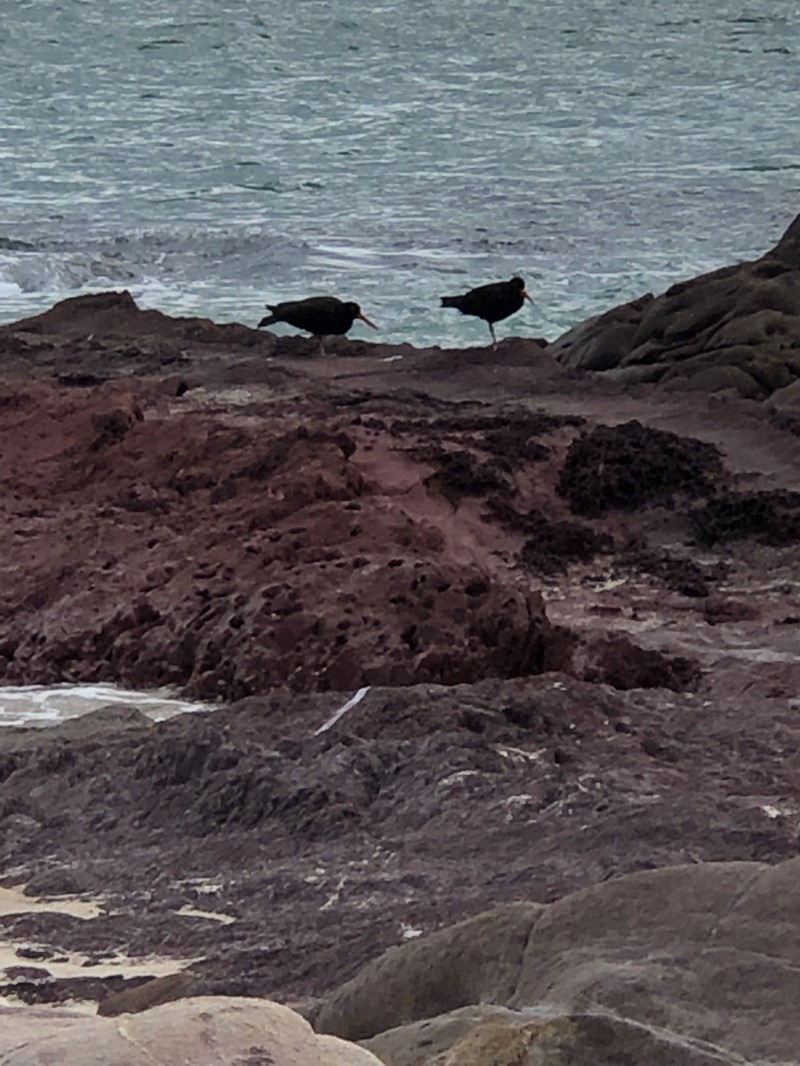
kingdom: Animalia
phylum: Chordata
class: Aves
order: Charadriiformes
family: Haematopodidae
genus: Haematopus
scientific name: Haematopus fuliginosus
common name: Sooty oystercatcher
